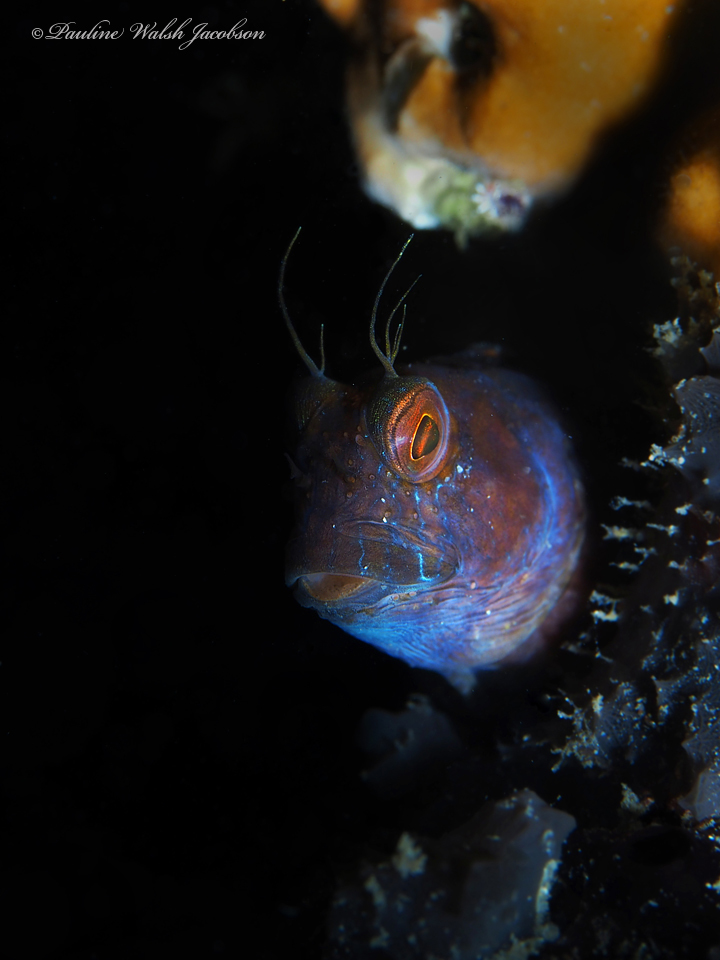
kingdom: Animalia
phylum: Chordata
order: Perciformes
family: Blenniidae
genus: Parablennius
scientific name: Parablennius marmoreus
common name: Seaweed blenny
